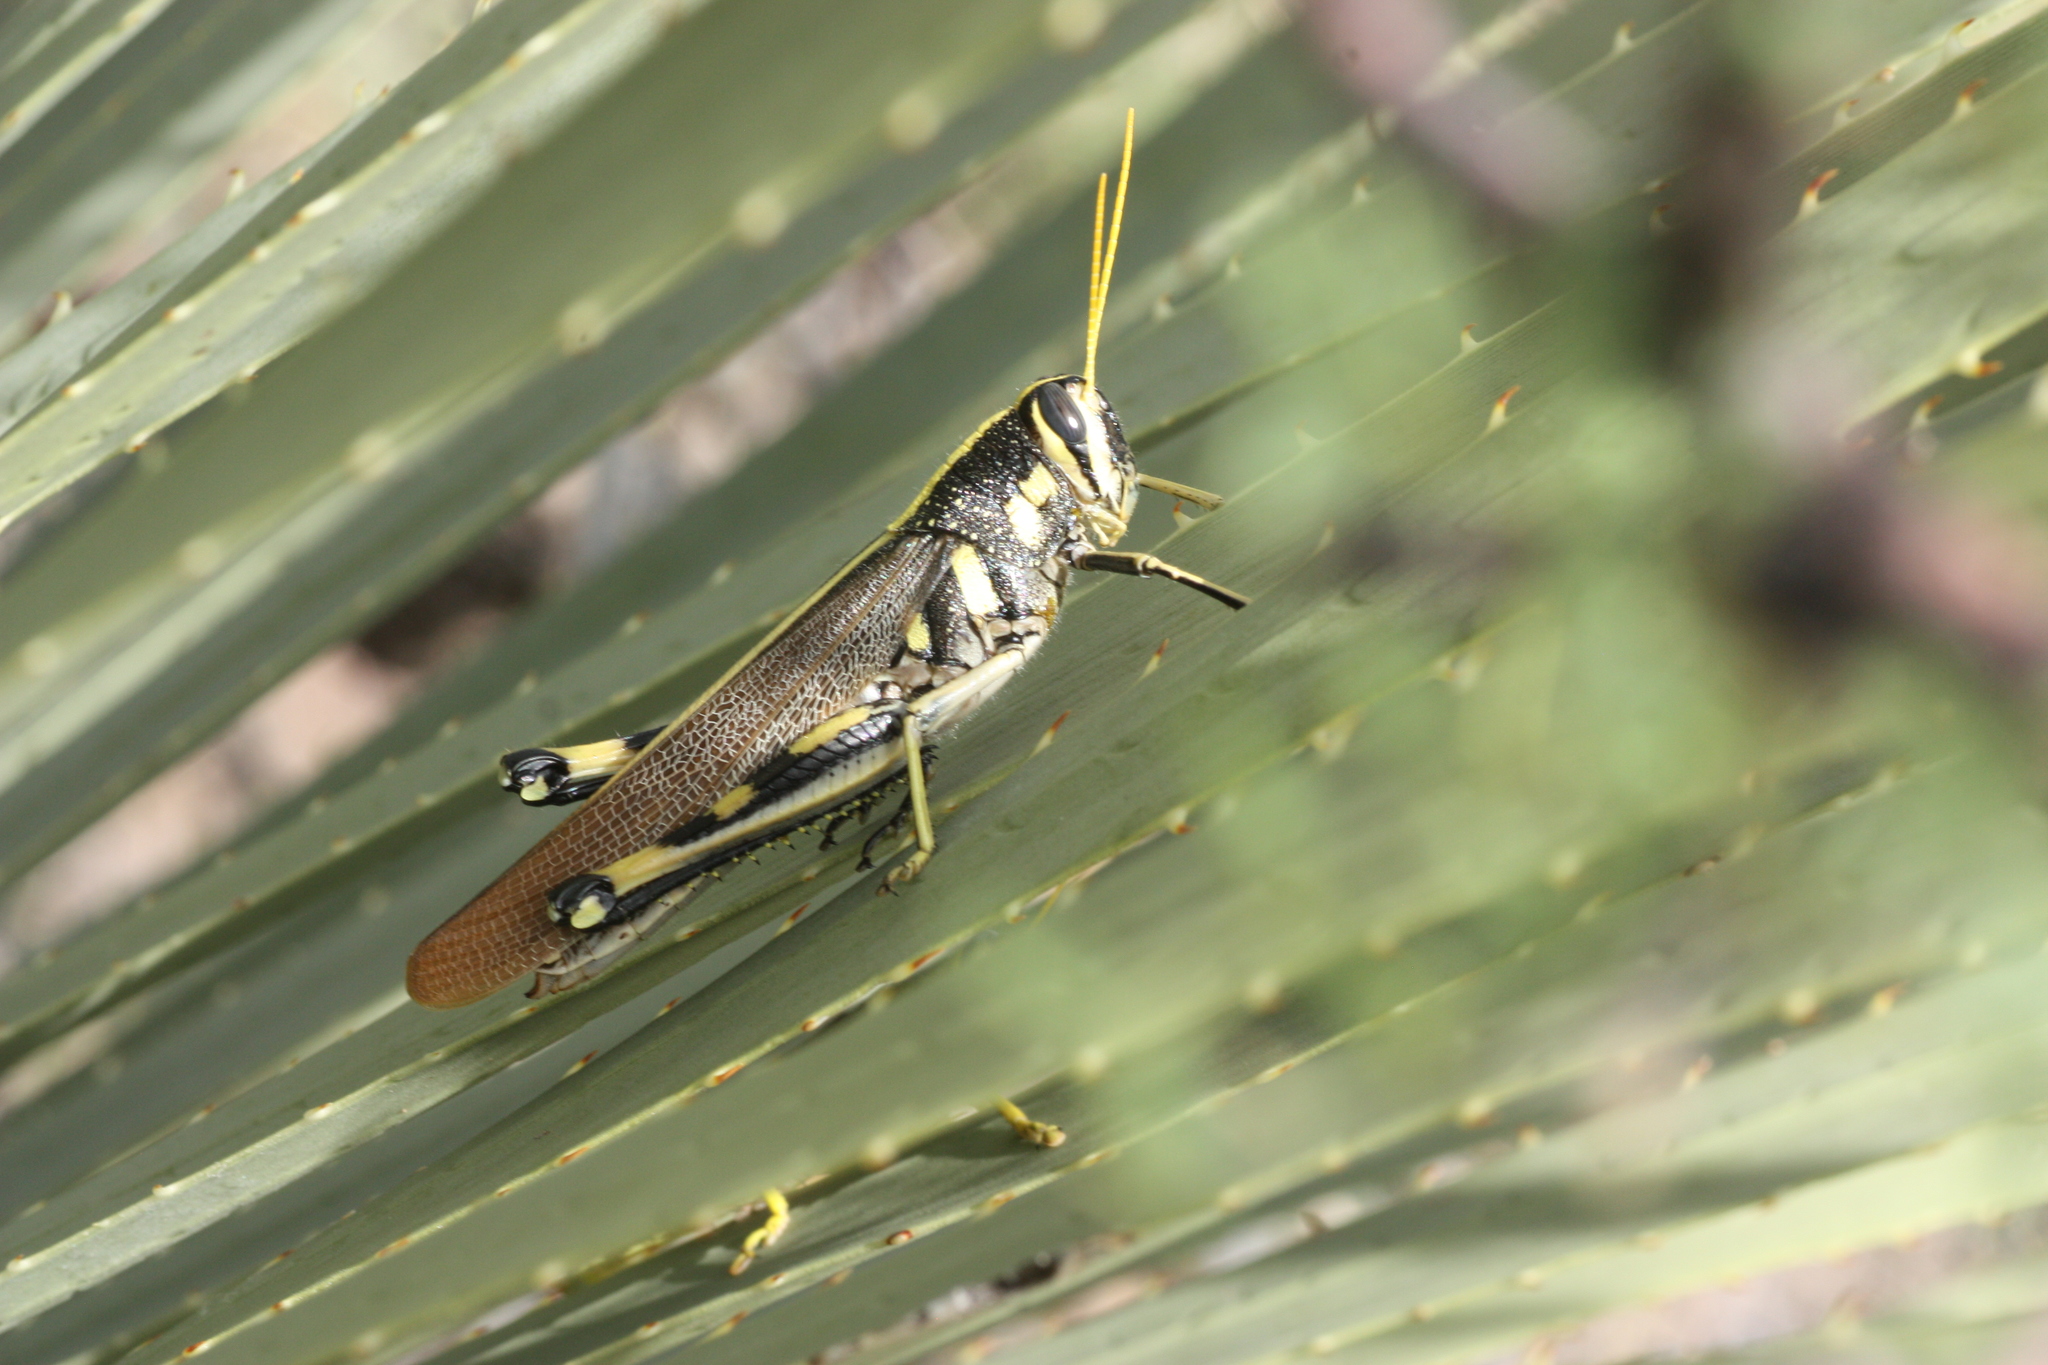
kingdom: Animalia
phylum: Arthropoda
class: Insecta
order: Orthoptera
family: Acrididae
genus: Schistocerca
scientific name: Schistocerca albolineata
